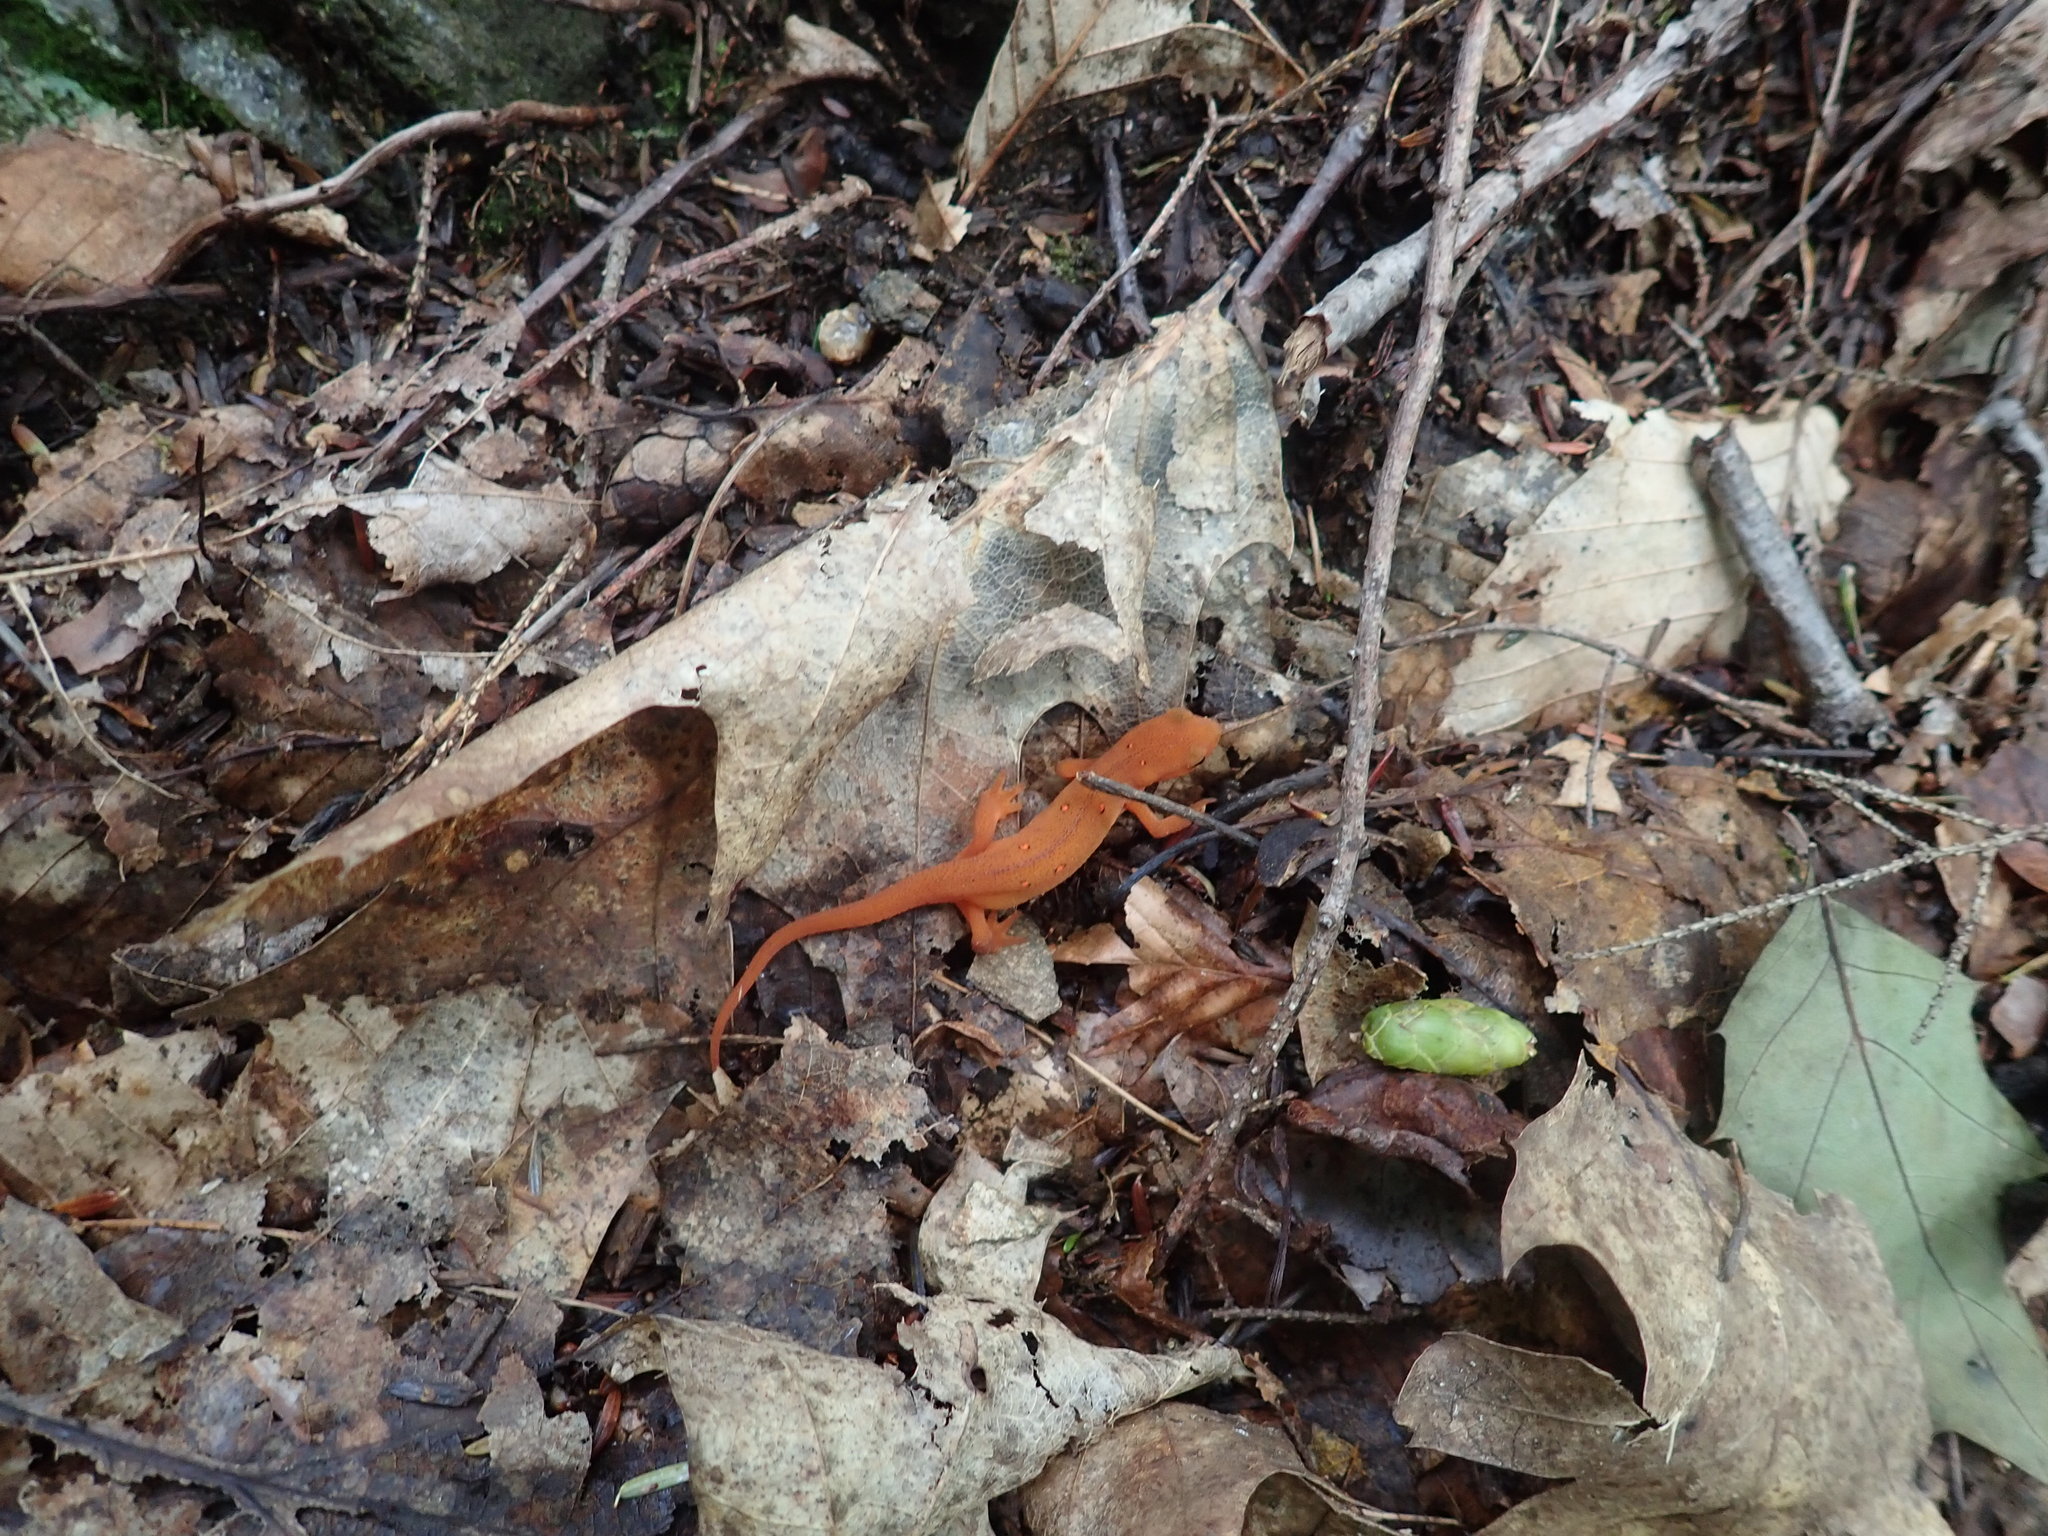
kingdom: Animalia
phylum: Chordata
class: Amphibia
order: Caudata
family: Salamandridae
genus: Notophthalmus
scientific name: Notophthalmus viridescens
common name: Eastern newt
